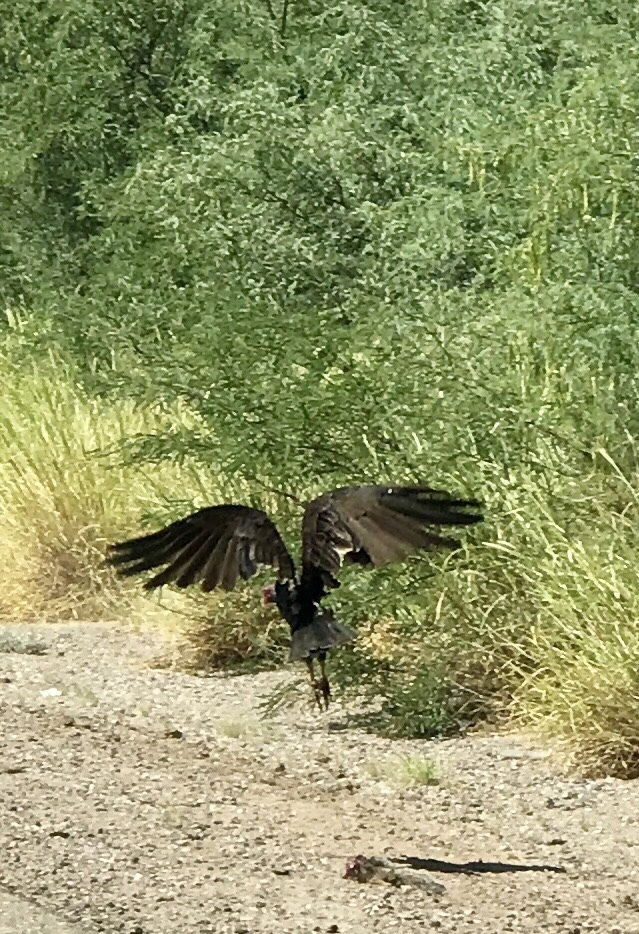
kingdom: Animalia
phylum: Chordata
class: Aves
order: Accipitriformes
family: Cathartidae
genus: Cathartes
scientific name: Cathartes aura
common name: Turkey vulture
